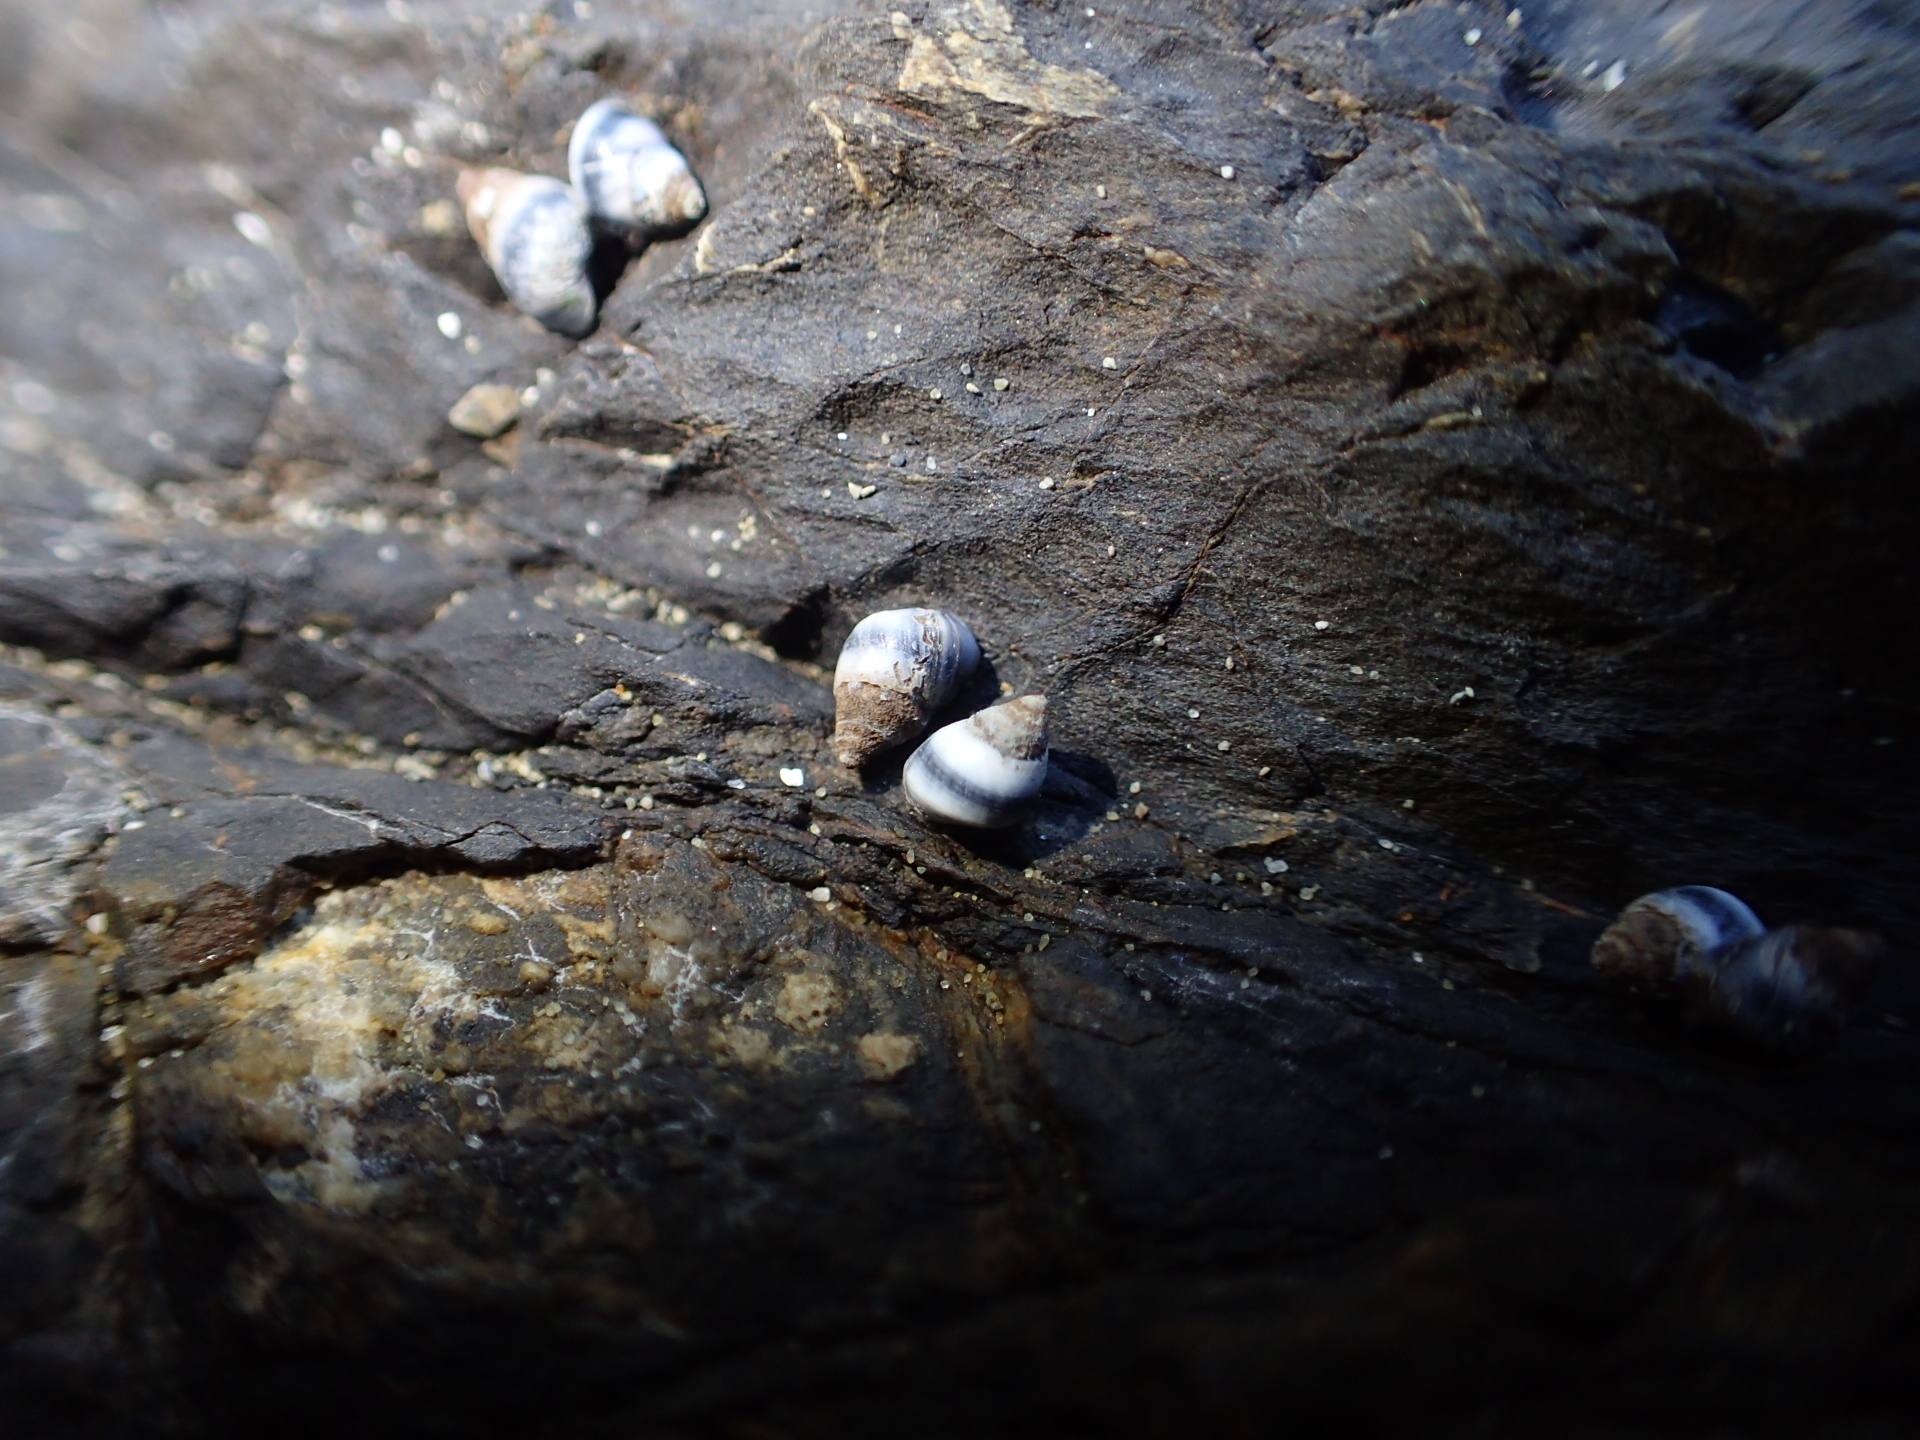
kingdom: Animalia
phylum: Mollusca
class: Gastropoda
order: Littorinimorpha
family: Littorinidae
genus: Austrolittorina
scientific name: Austrolittorina antipodum
